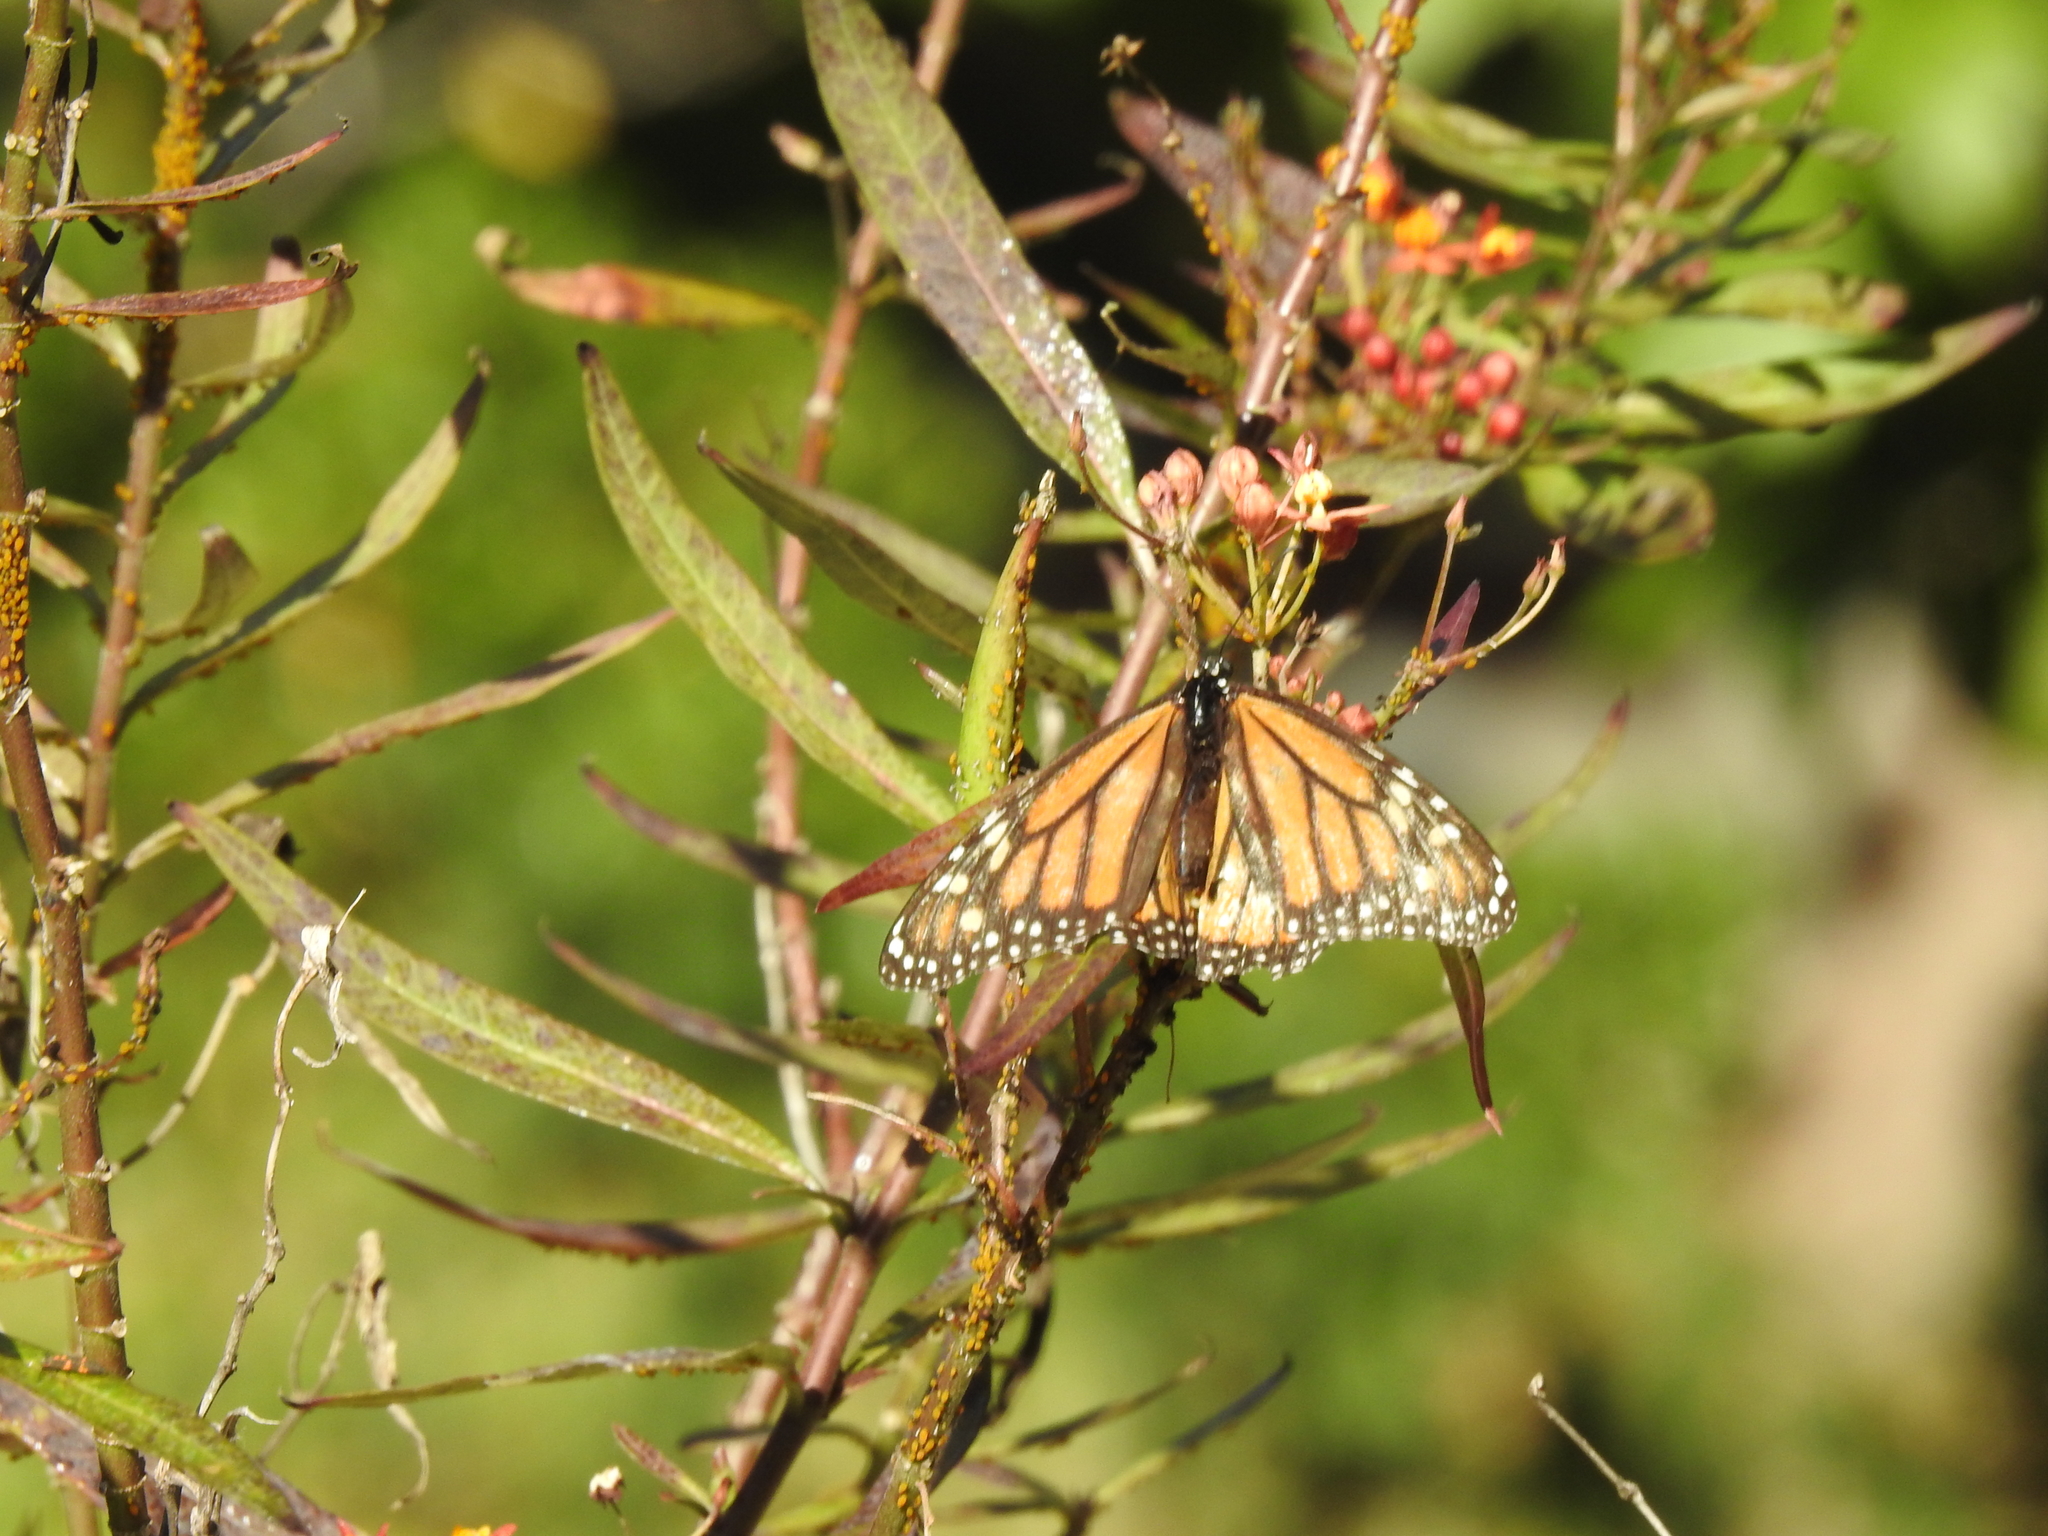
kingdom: Animalia
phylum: Arthropoda
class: Insecta
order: Lepidoptera
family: Nymphalidae
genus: Danaus
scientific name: Danaus plexippus
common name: Monarch
